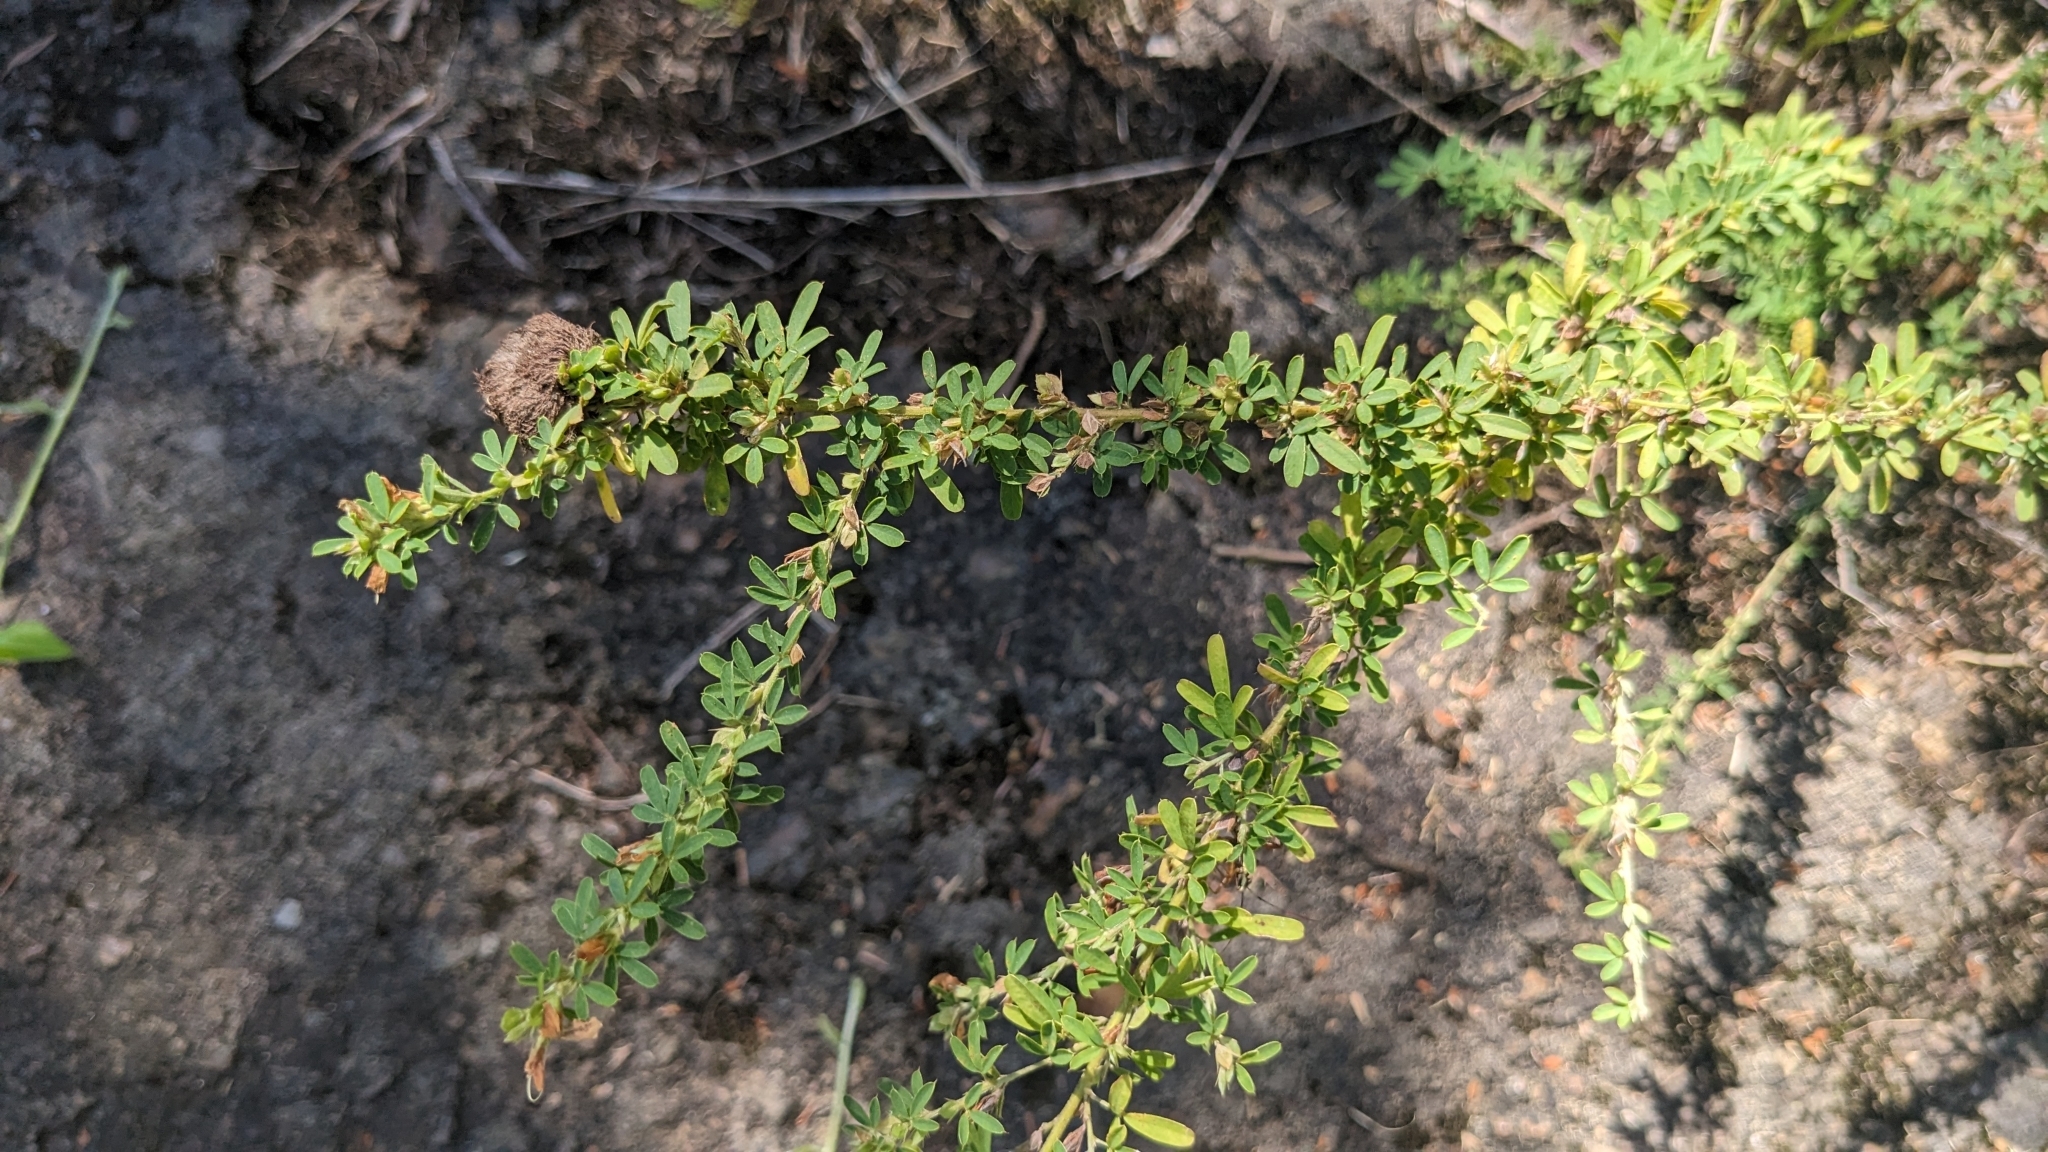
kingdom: Plantae
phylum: Tracheophyta
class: Magnoliopsida
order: Fabales
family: Fabaceae
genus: Lespedeza
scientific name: Lespedeza cuneata
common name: Chinese bush-clover
